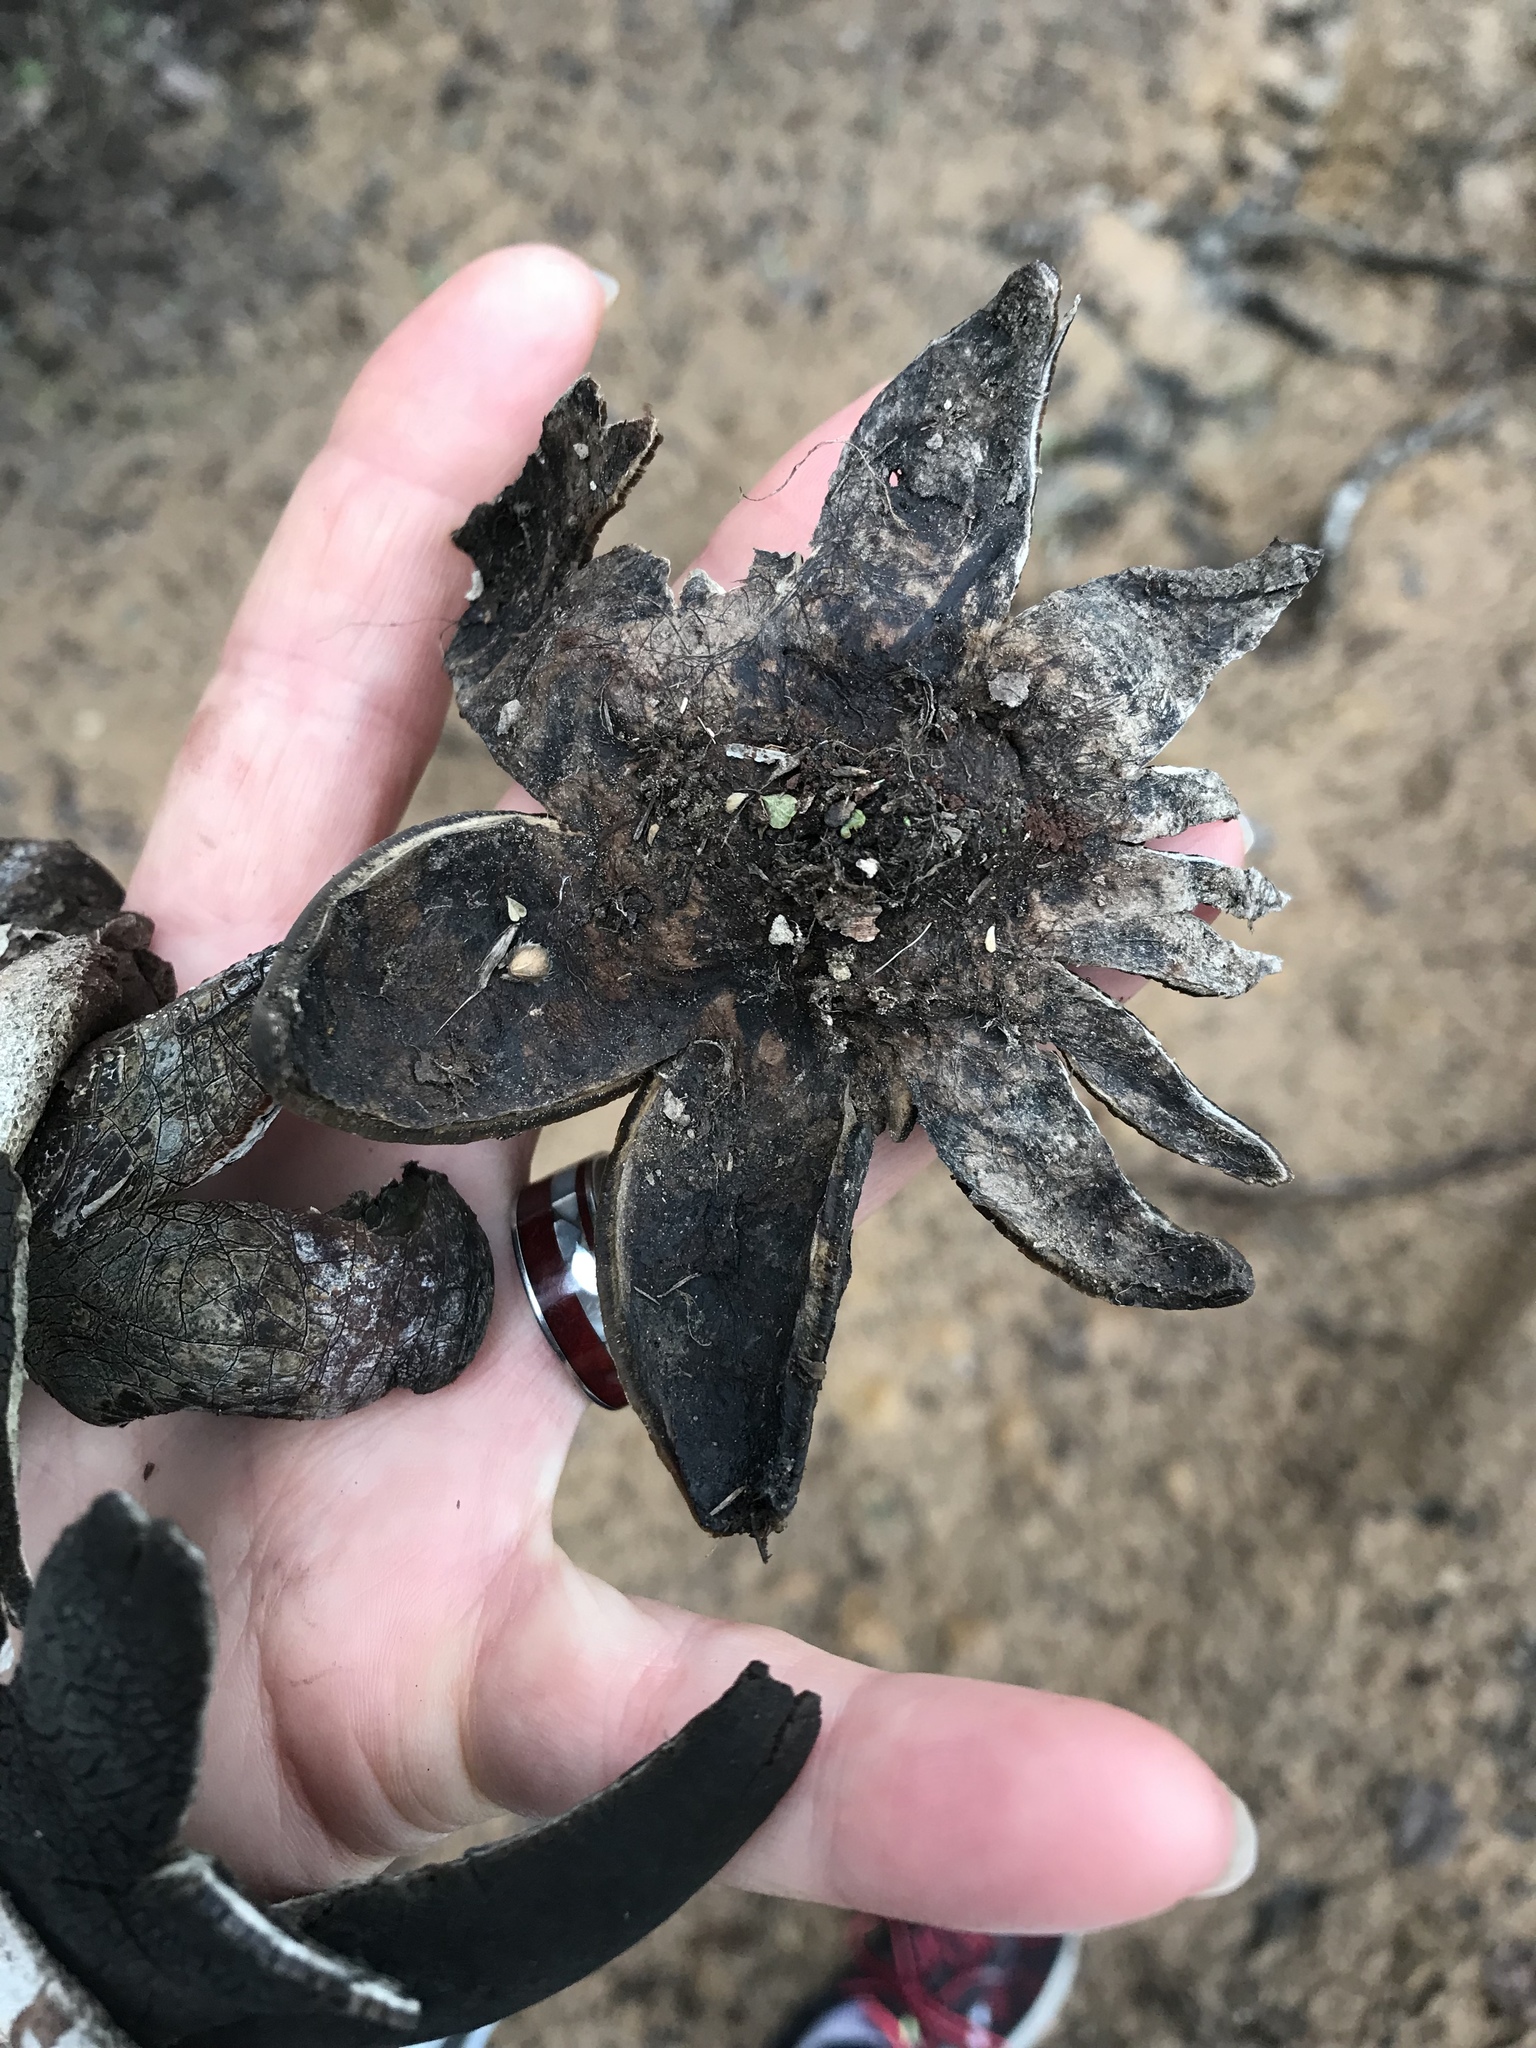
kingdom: Fungi
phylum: Basidiomycota
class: Agaricomycetes
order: Boletales
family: Diplocystidiaceae
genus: Astraeus
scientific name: Astraeus pteridis
